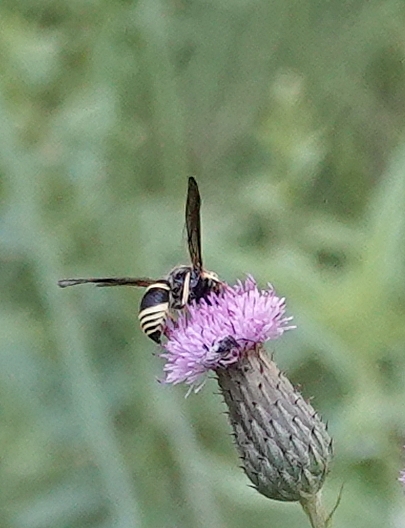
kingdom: Animalia
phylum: Arthropoda
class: Insecta
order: Hymenoptera
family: Vespidae
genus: Ancistrocerus
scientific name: Ancistrocerus
